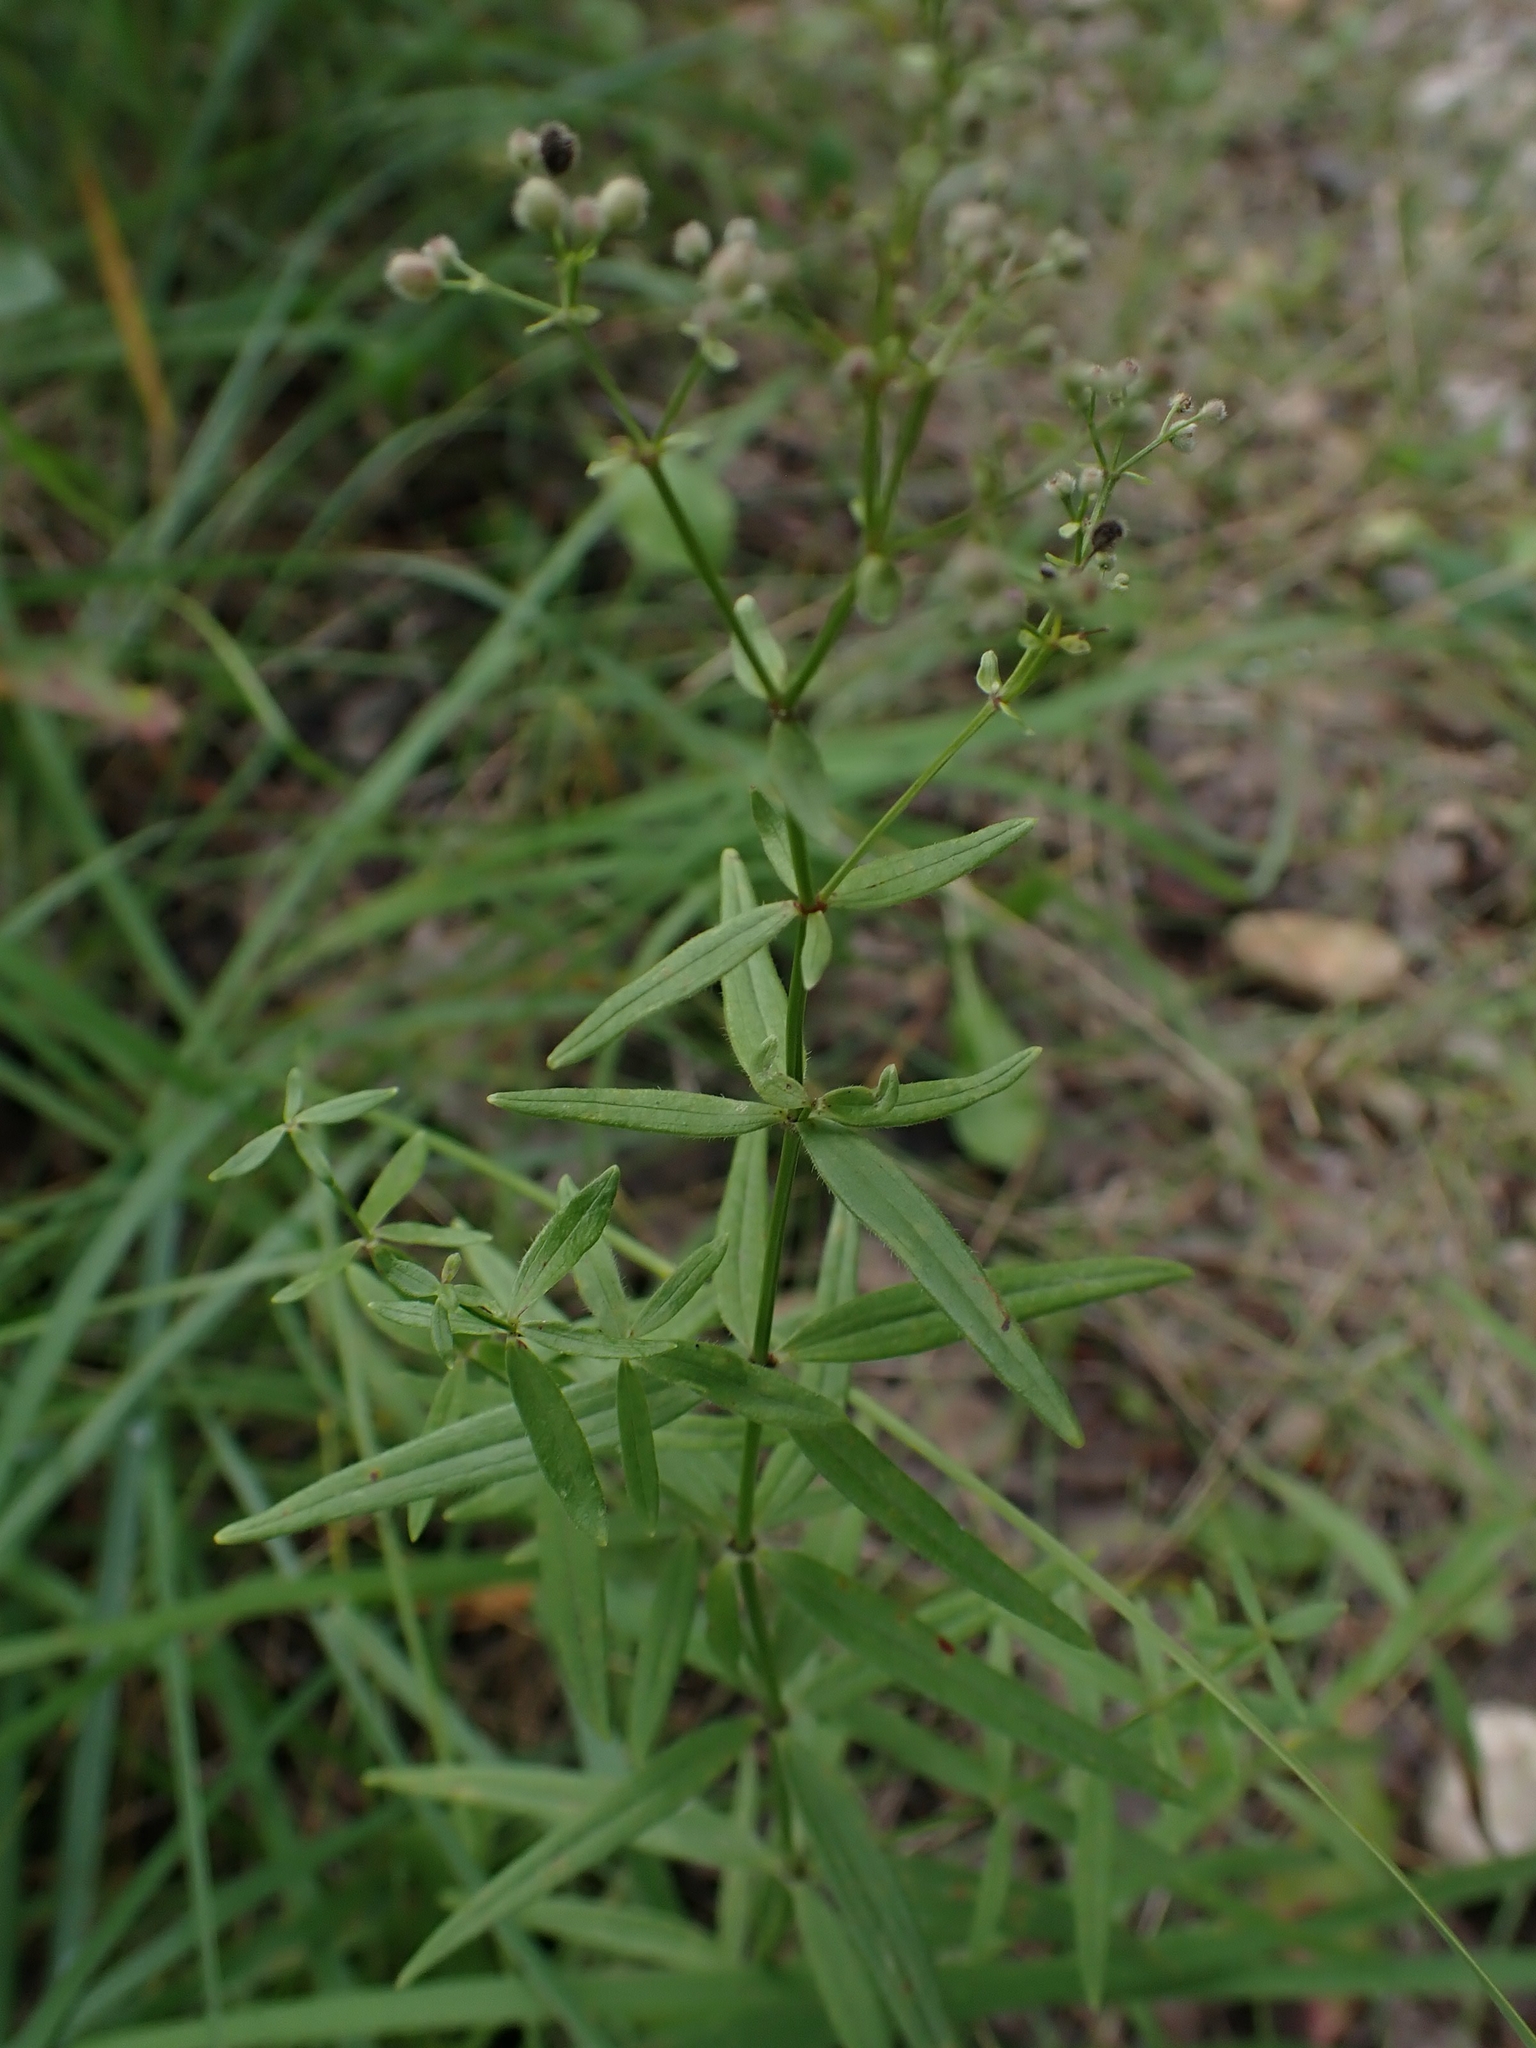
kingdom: Plantae
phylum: Tracheophyta
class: Magnoliopsida
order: Gentianales
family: Rubiaceae
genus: Galium
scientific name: Galium boreale
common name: Northern bedstraw
